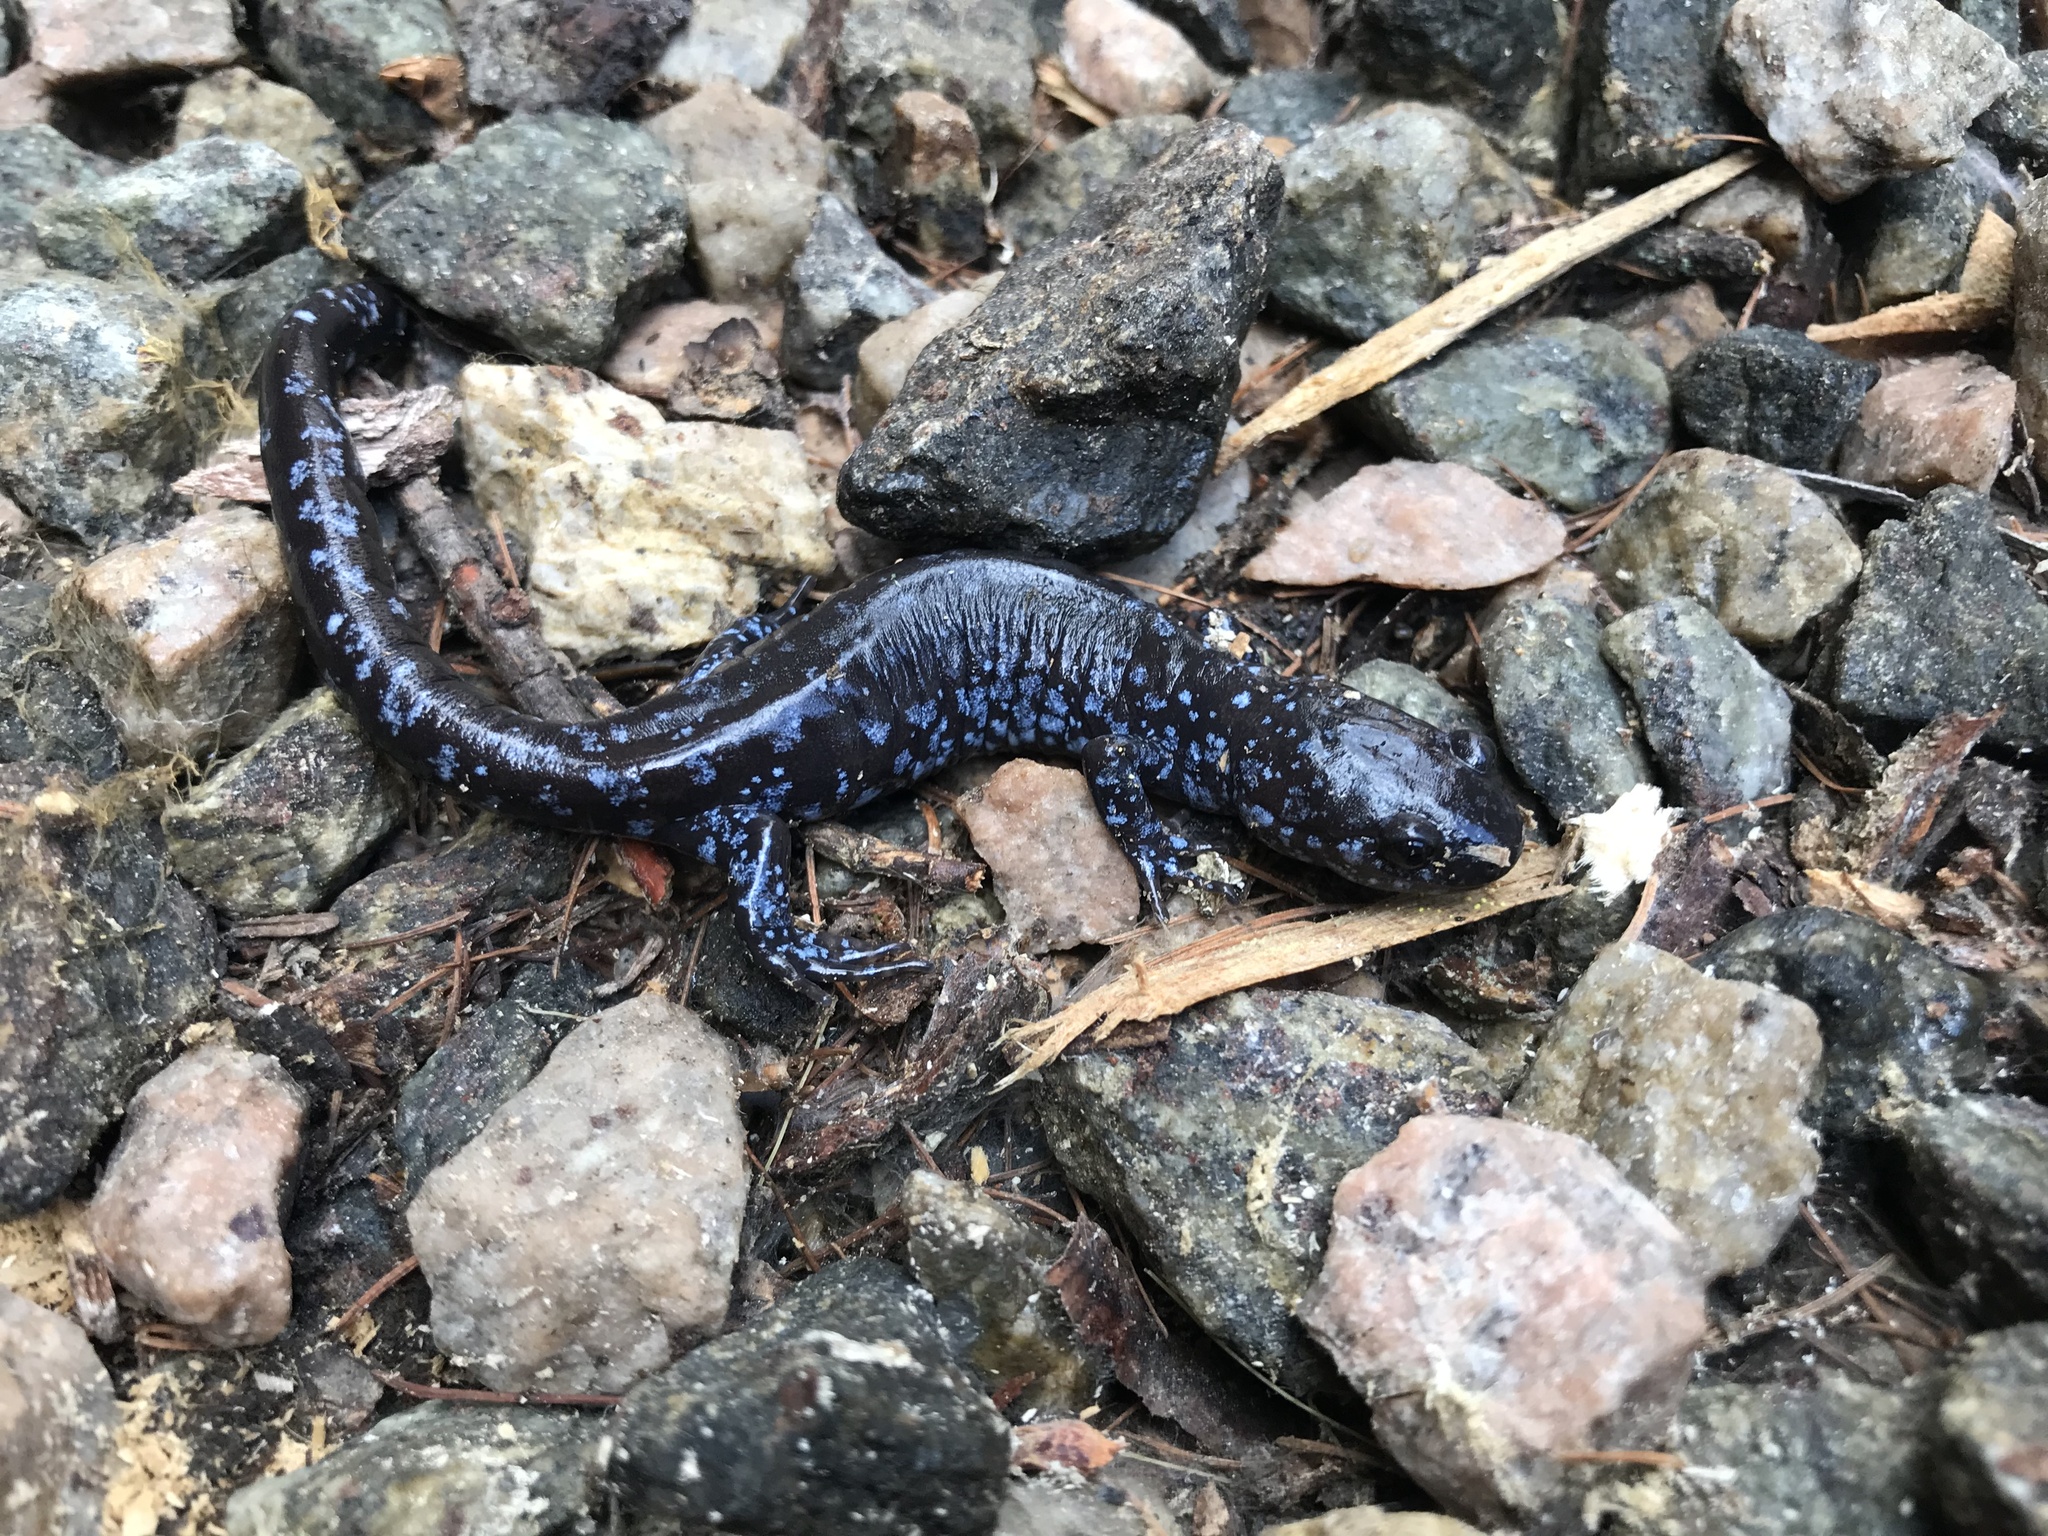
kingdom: Animalia
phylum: Chordata
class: Amphibia
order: Caudata
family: Ambystomatidae
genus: Ambystoma
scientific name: Ambystoma laterale
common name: Blue-spotted salamander
